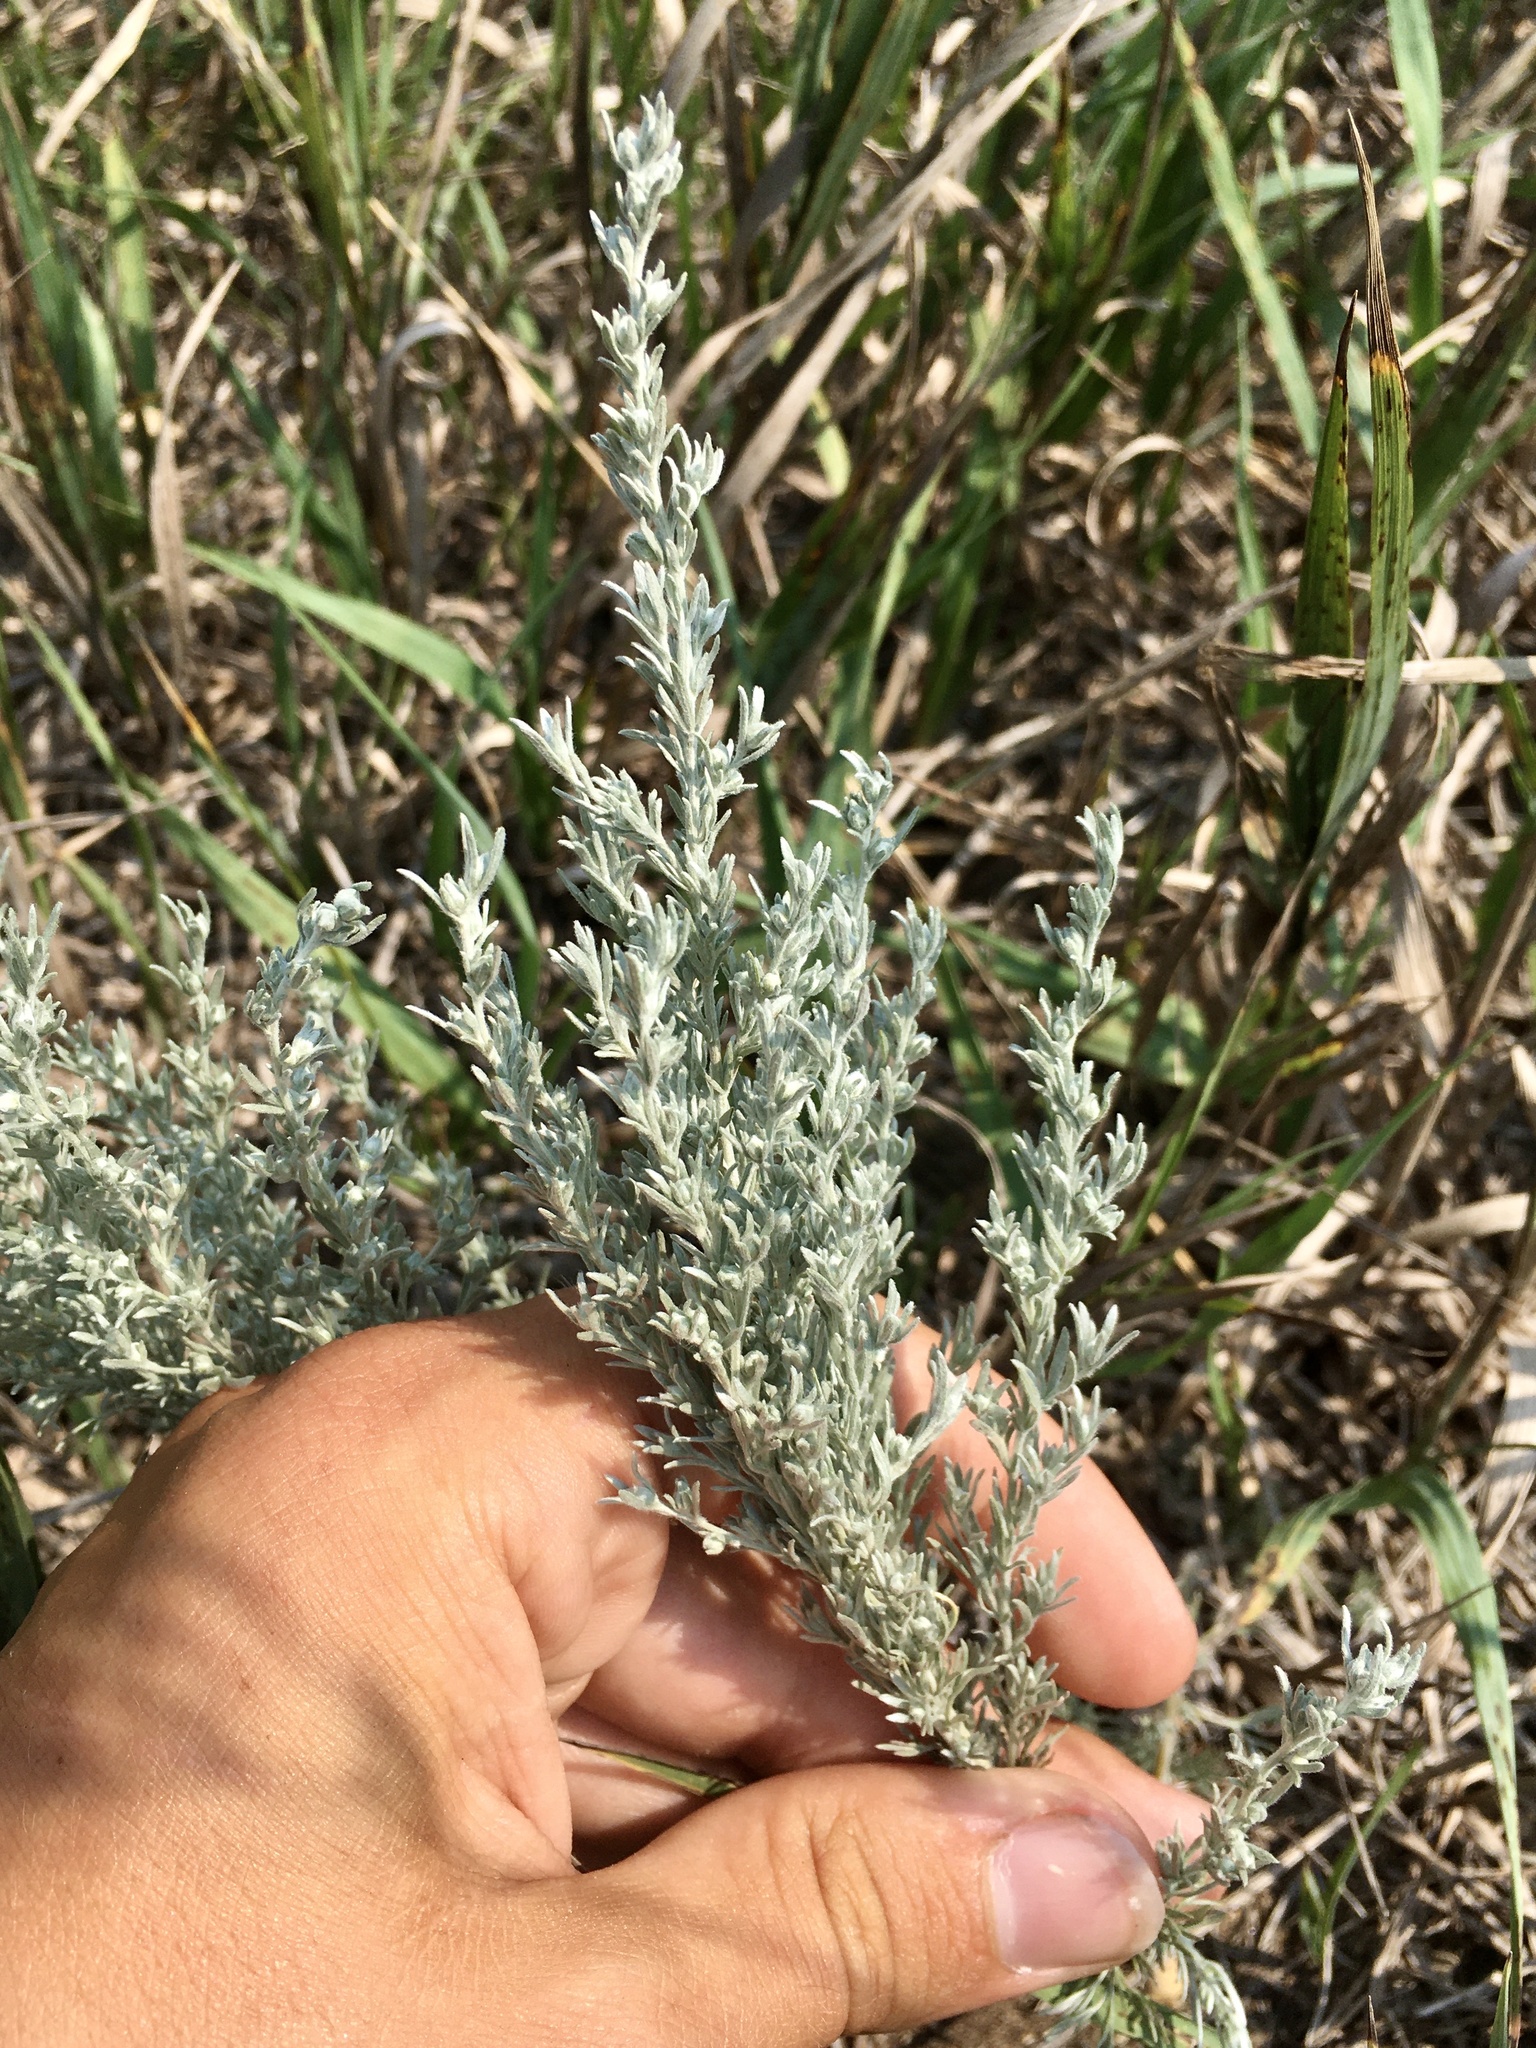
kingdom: Plantae
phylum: Tracheophyta
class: Magnoliopsida
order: Asterales
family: Asteraceae
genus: Artemisia
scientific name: Artemisia frigida
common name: Prairie sagewort
